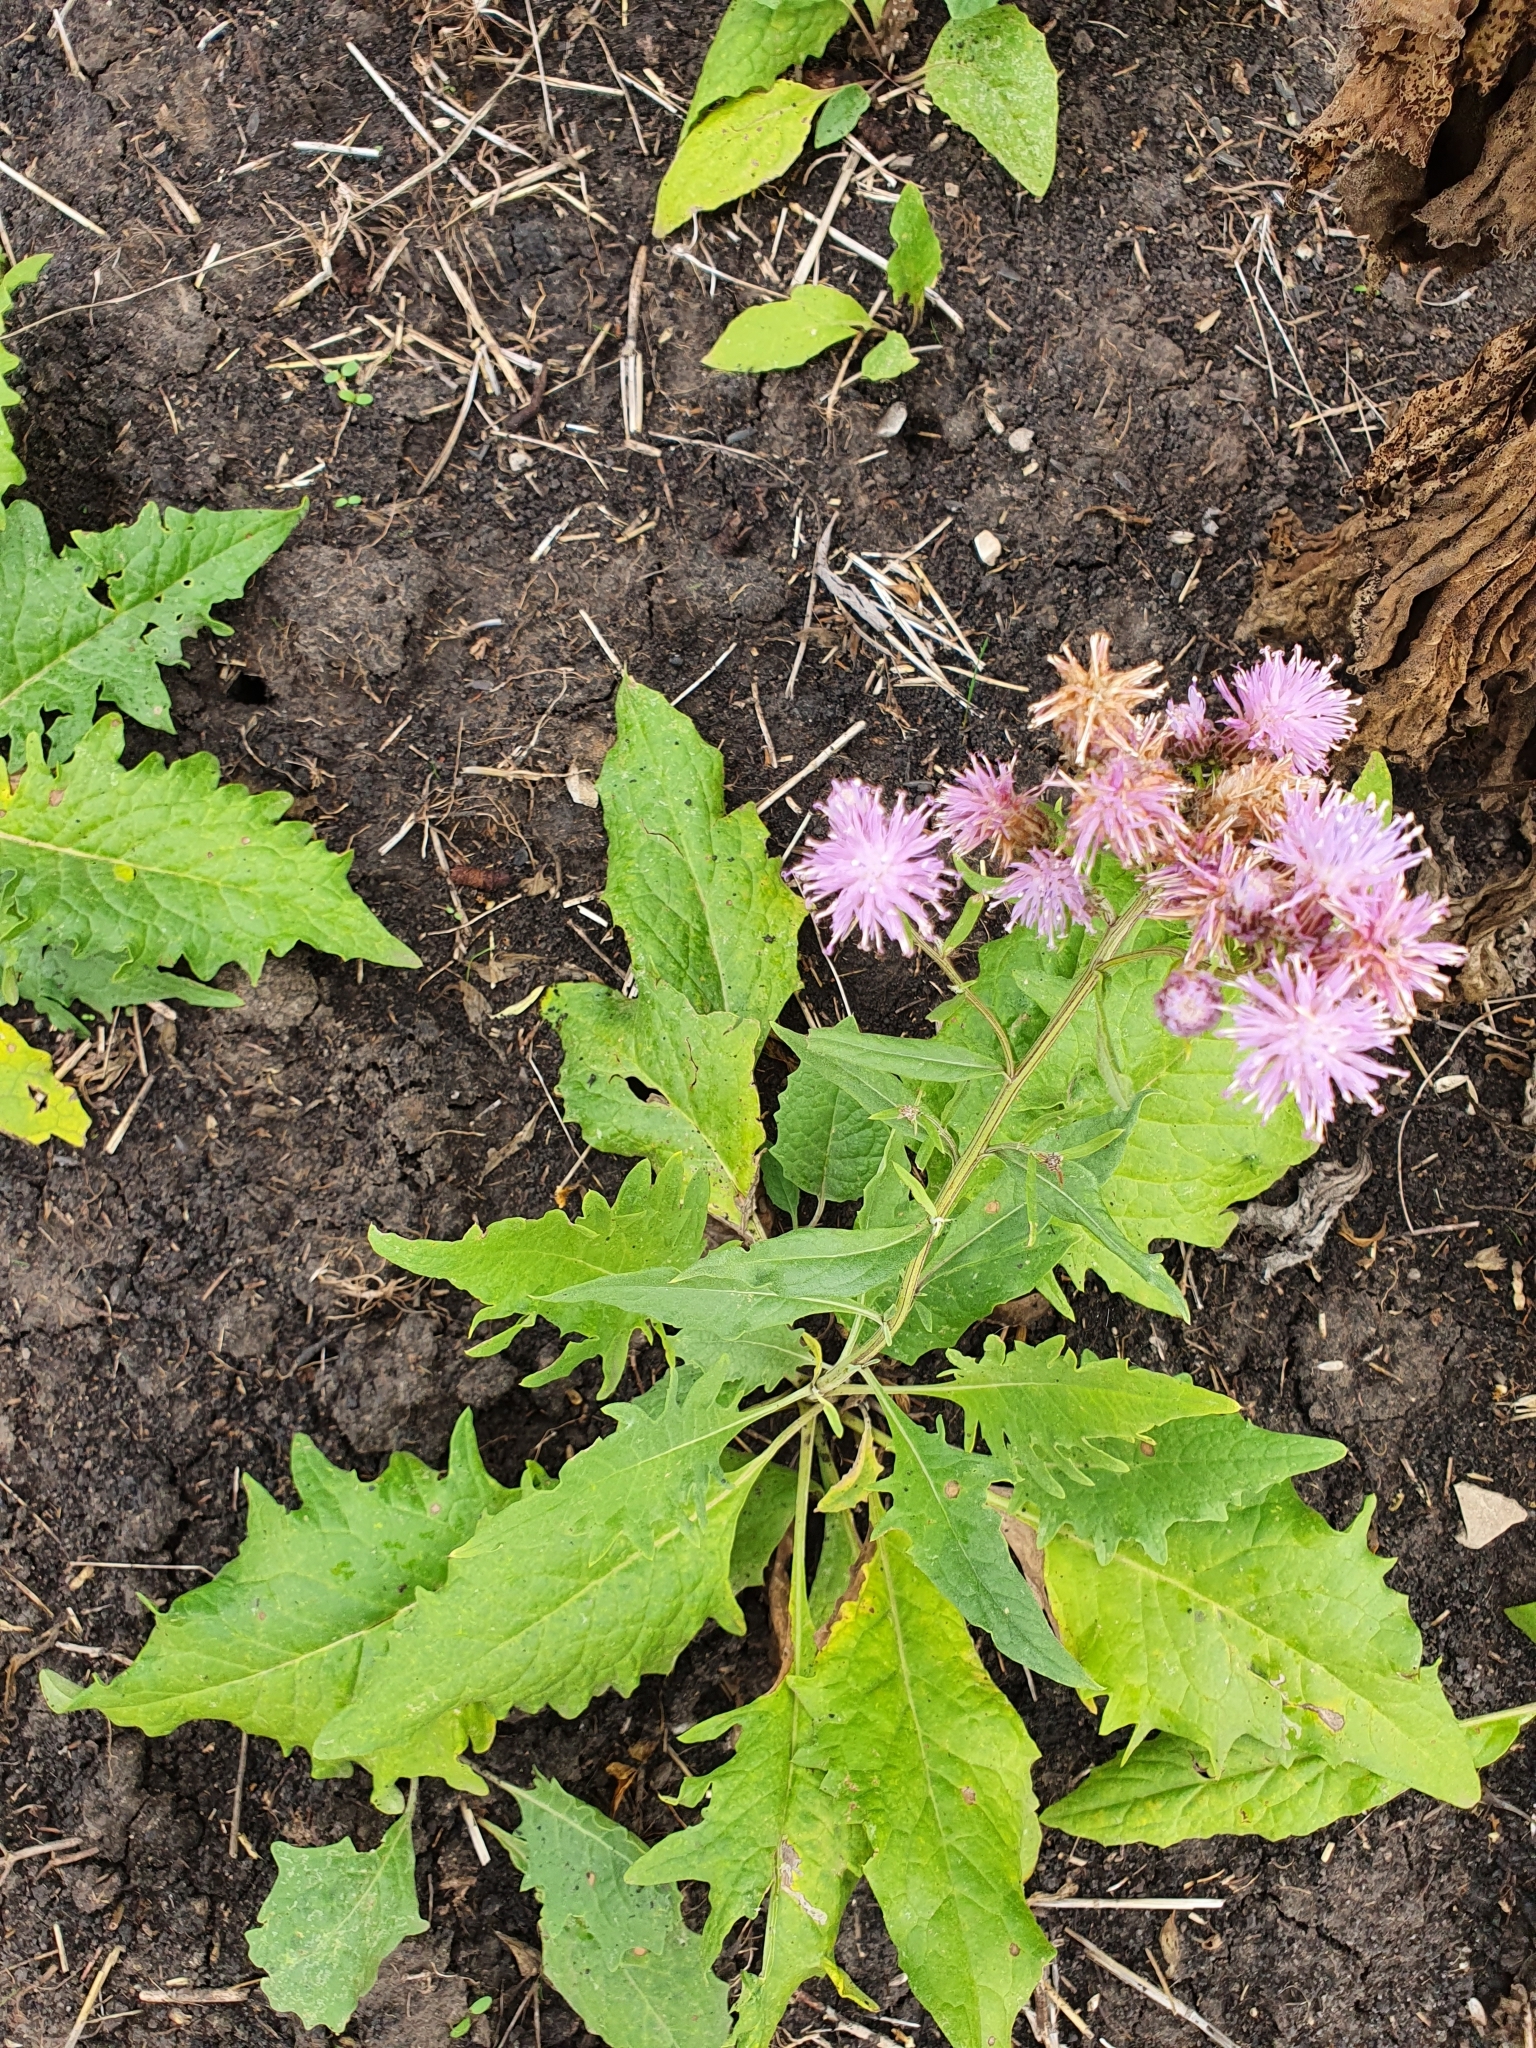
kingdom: Plantae
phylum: Tracheophyta
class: Magnoliopsida
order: Asterales
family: Asteraceae
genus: Saussurea
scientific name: Saussurea amara
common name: Alberta sawwort
